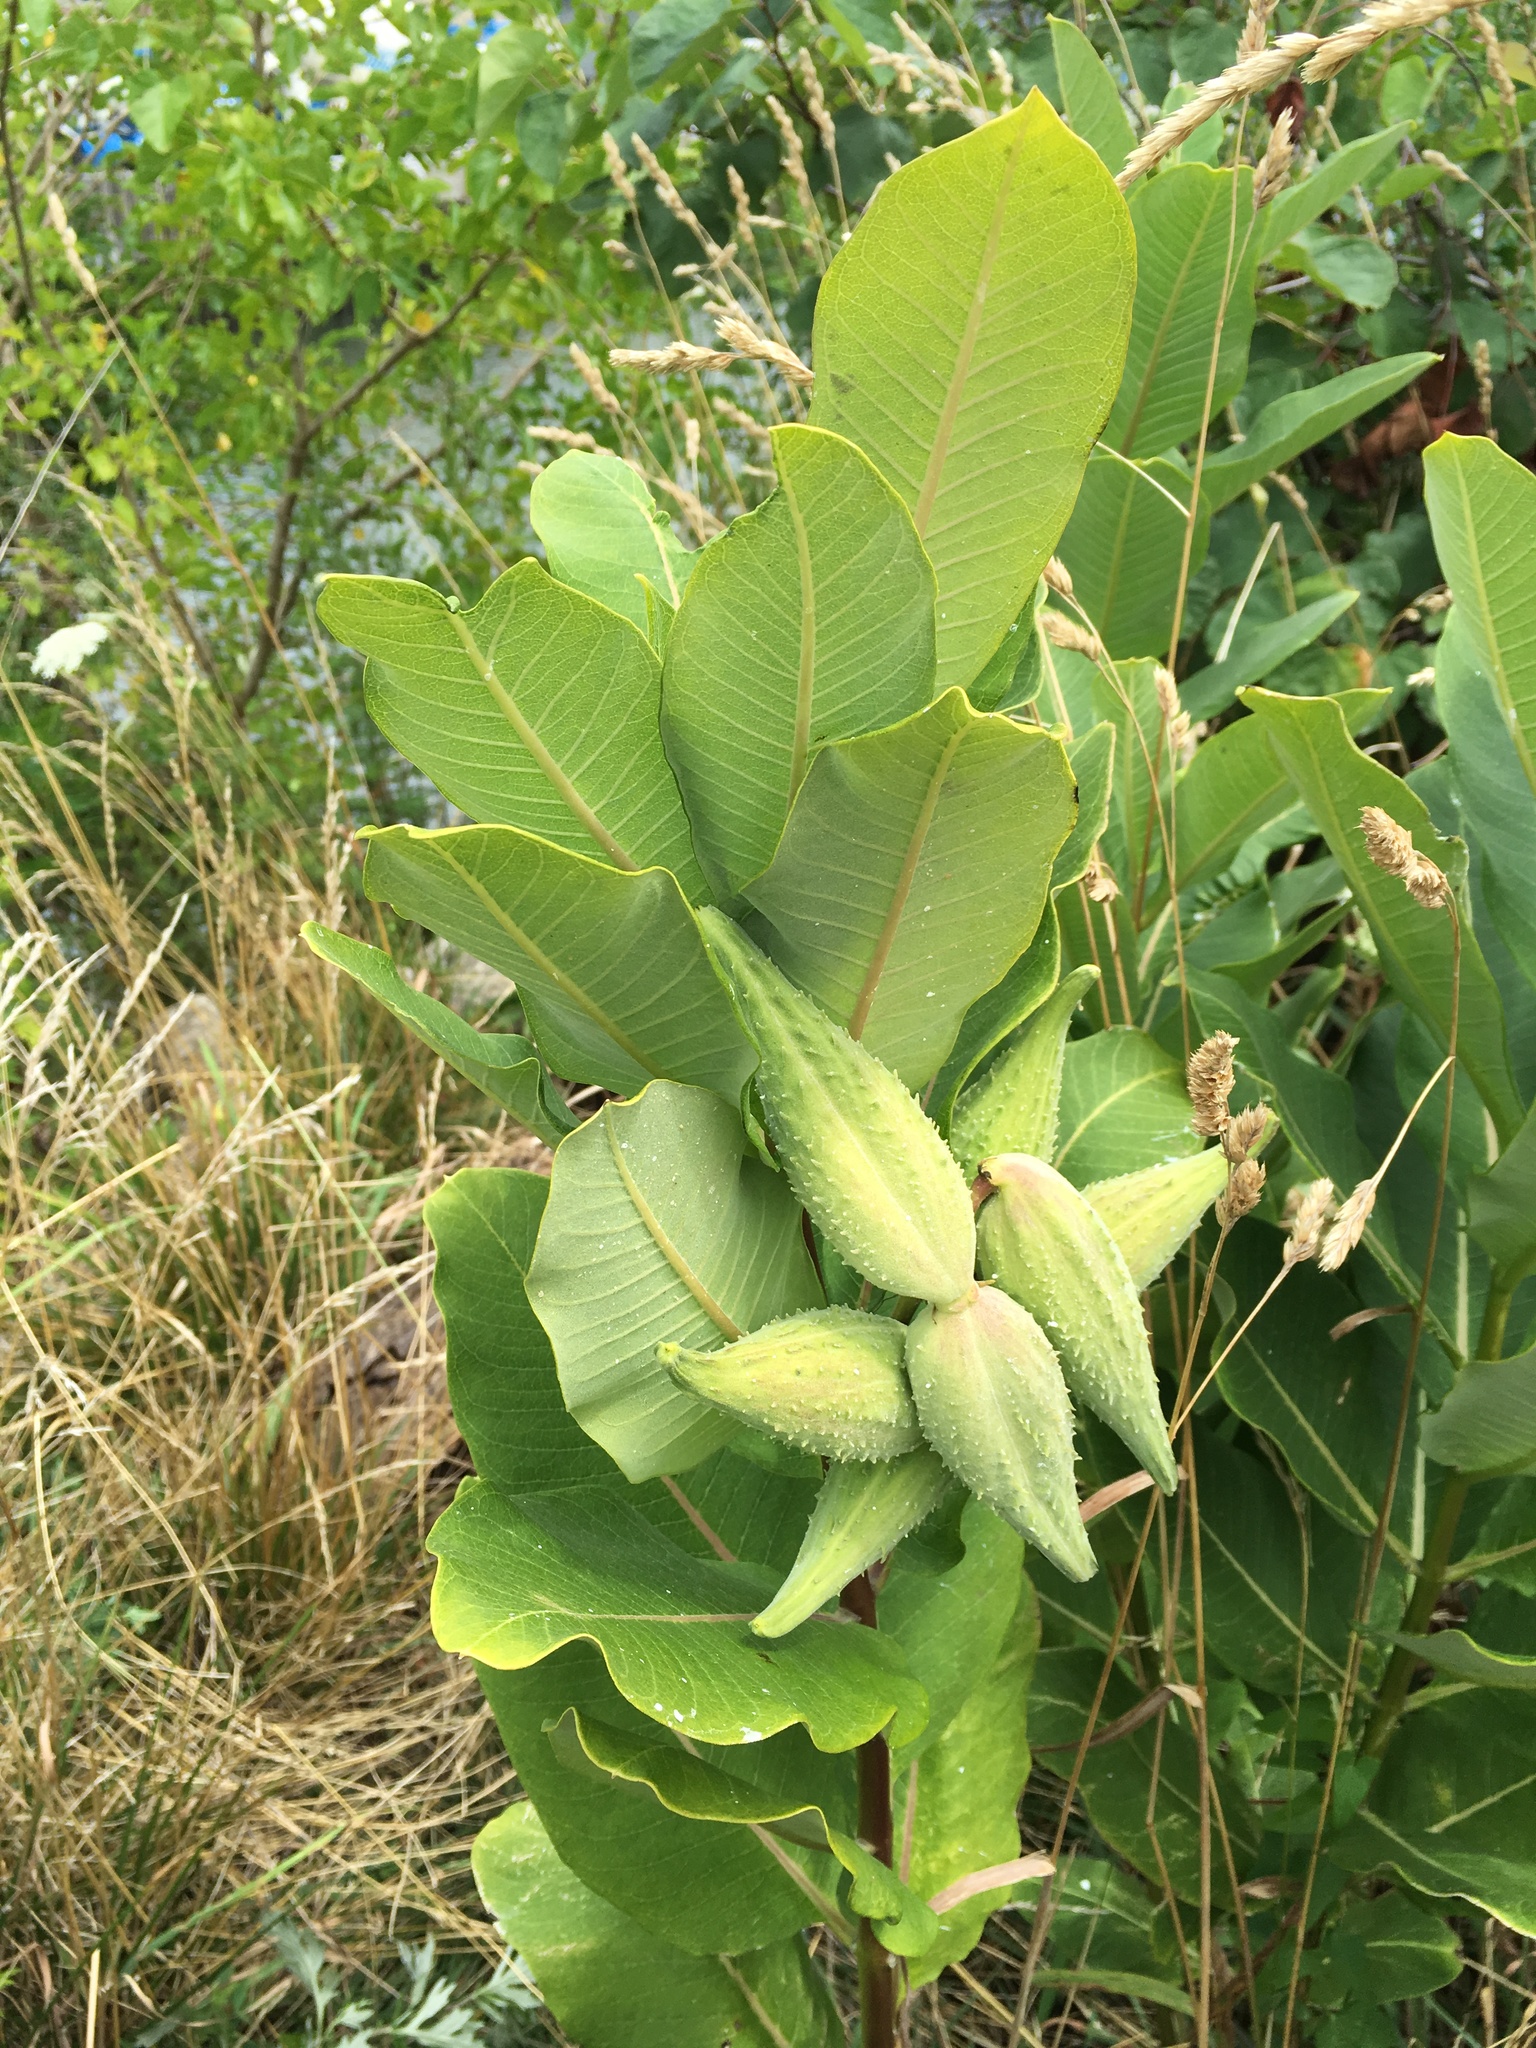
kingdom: Plantae
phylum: Tracheophyta
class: Magnoliopsida
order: Gentianales
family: Apocynaceae
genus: Asclepias
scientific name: Asclepias syriaca
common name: Common milkweed
